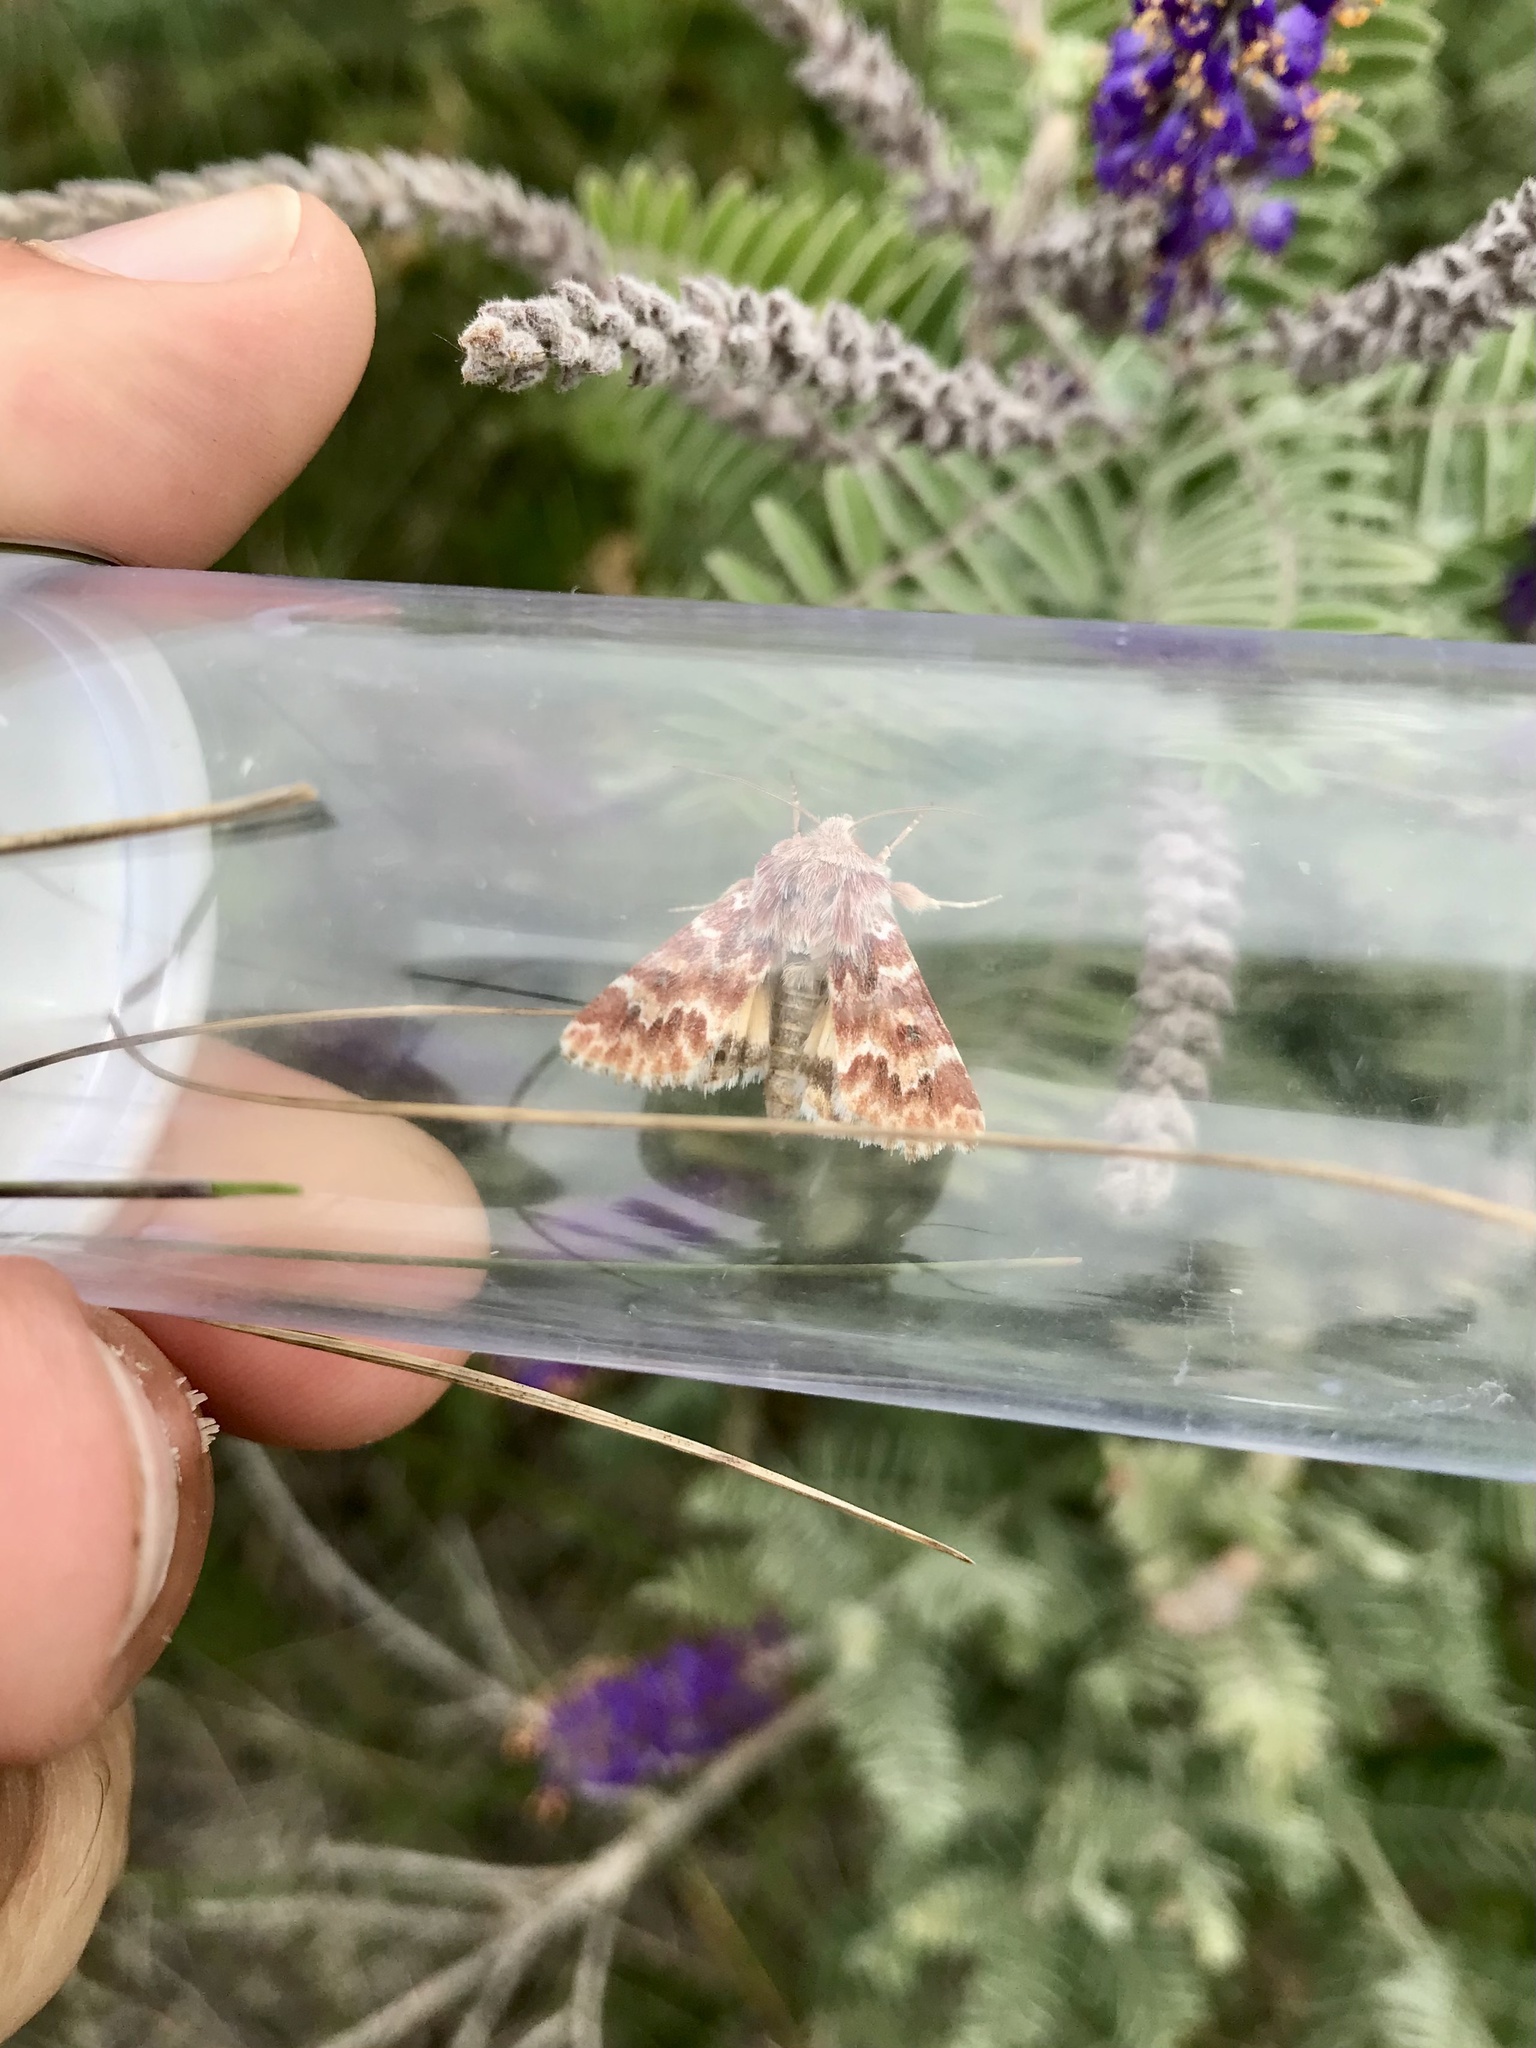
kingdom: Animalia
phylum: Arthropoda
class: Insecta
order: Lepidoptera
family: Noctuidae
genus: Schinia
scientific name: Schinia lucens
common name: Leadplant flower moth
